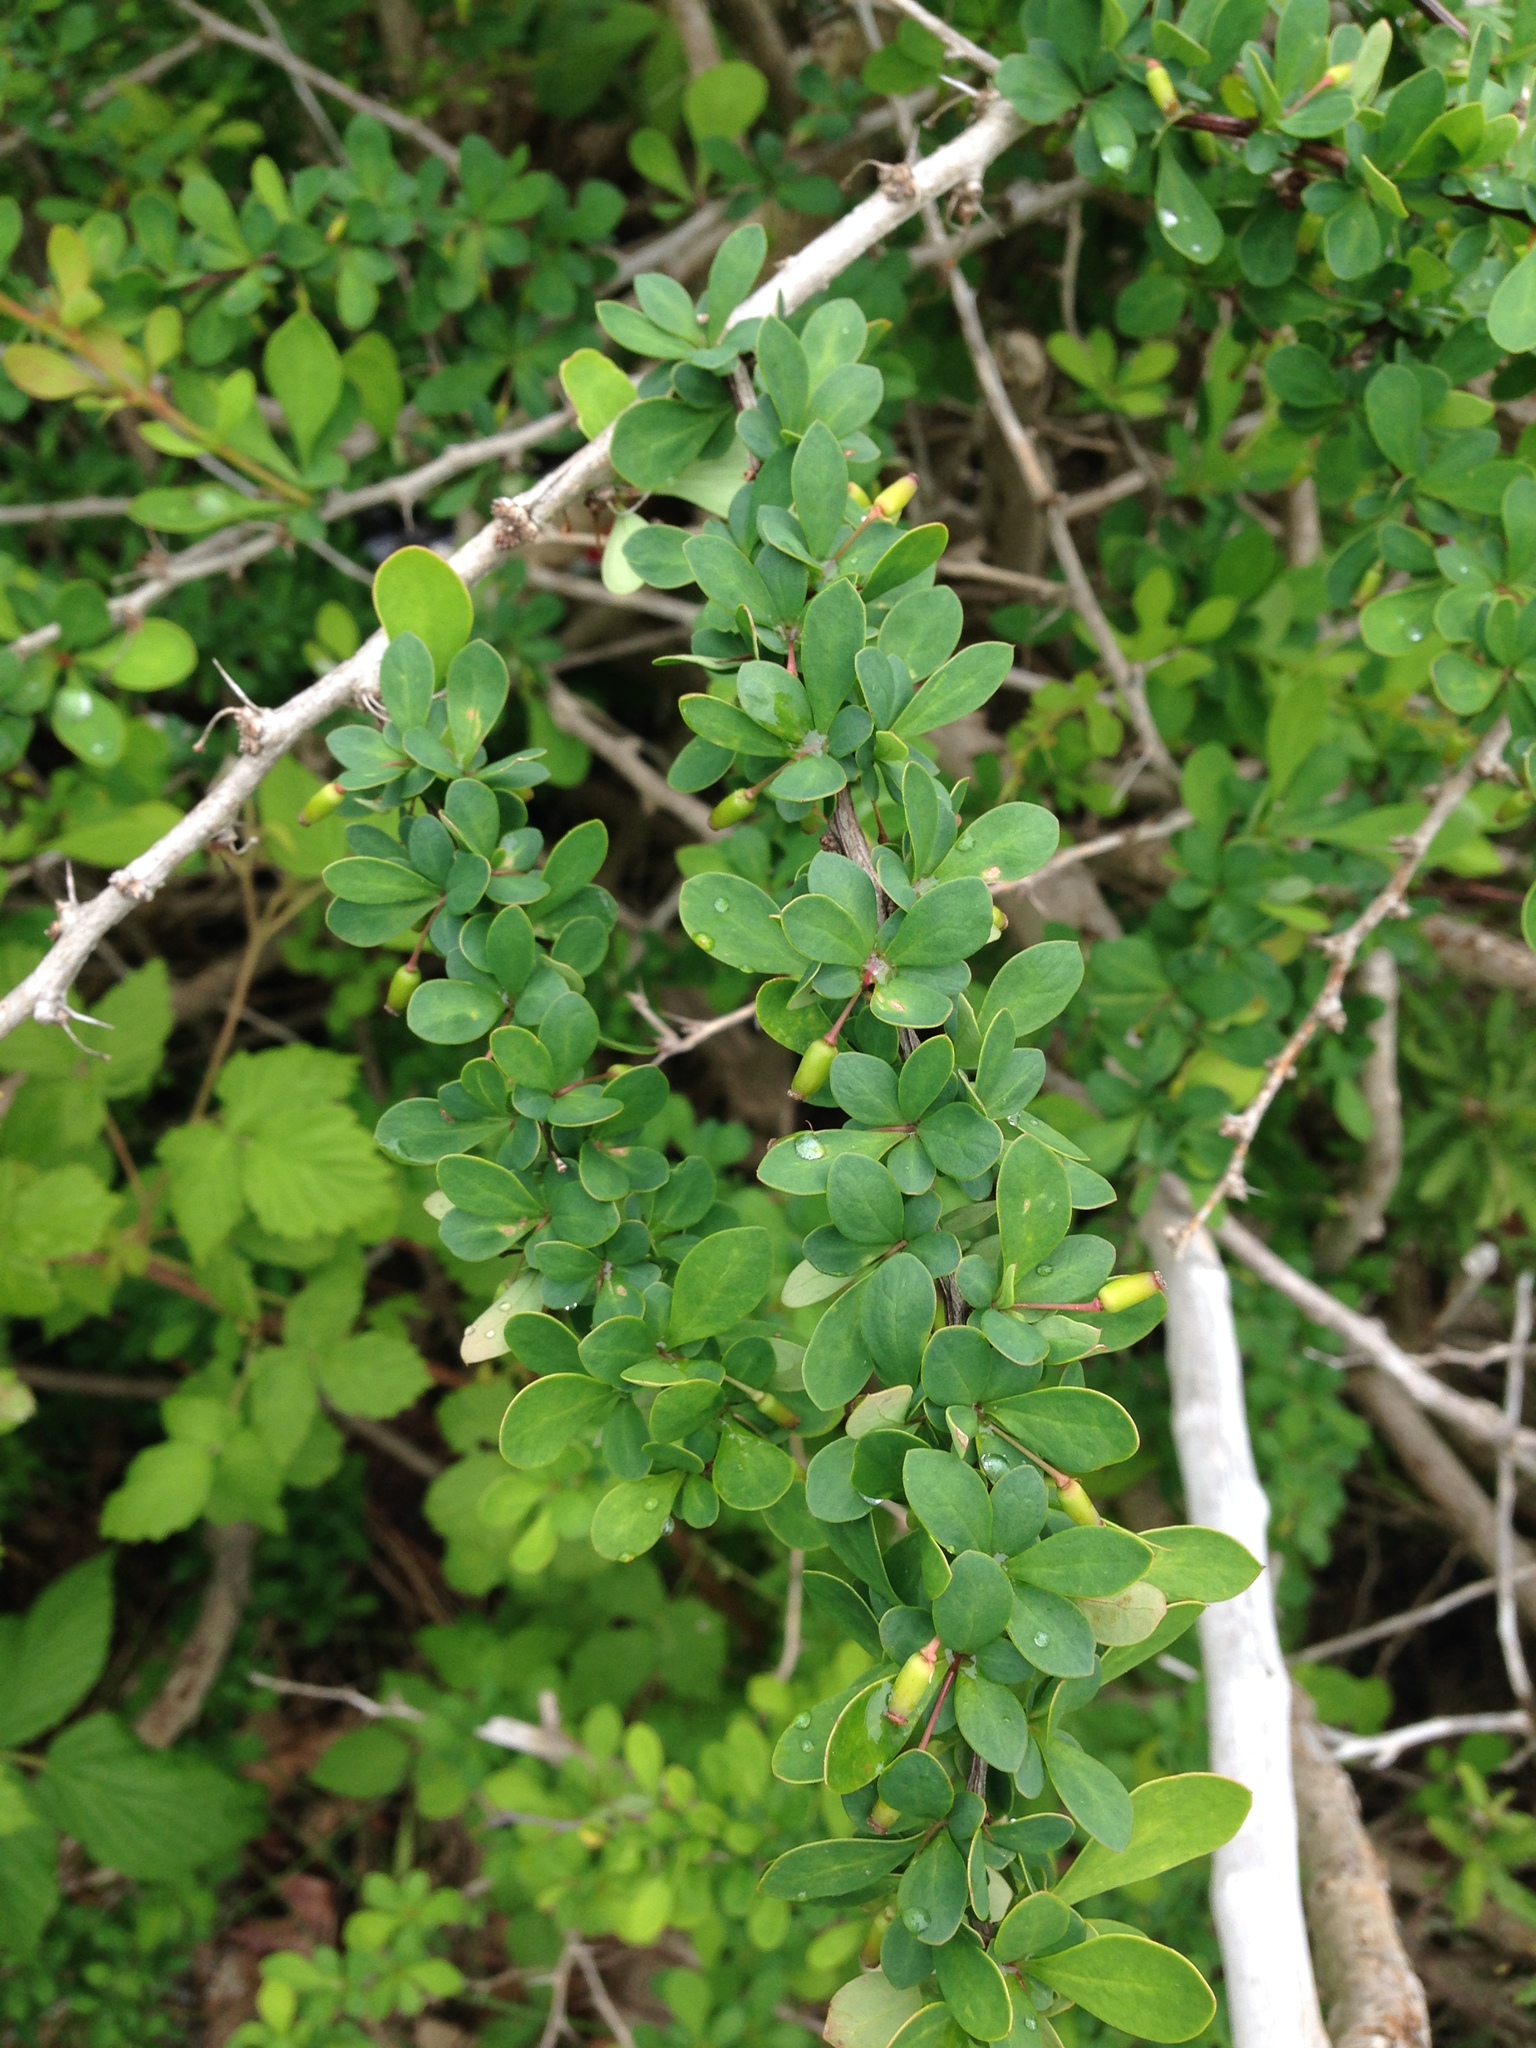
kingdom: Plantae
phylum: Tracheophyta
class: Magnoliopsida
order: Ranunculales
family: Berberidaceae
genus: Berberis
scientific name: Berberis thunbergii
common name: Japanese barberry
